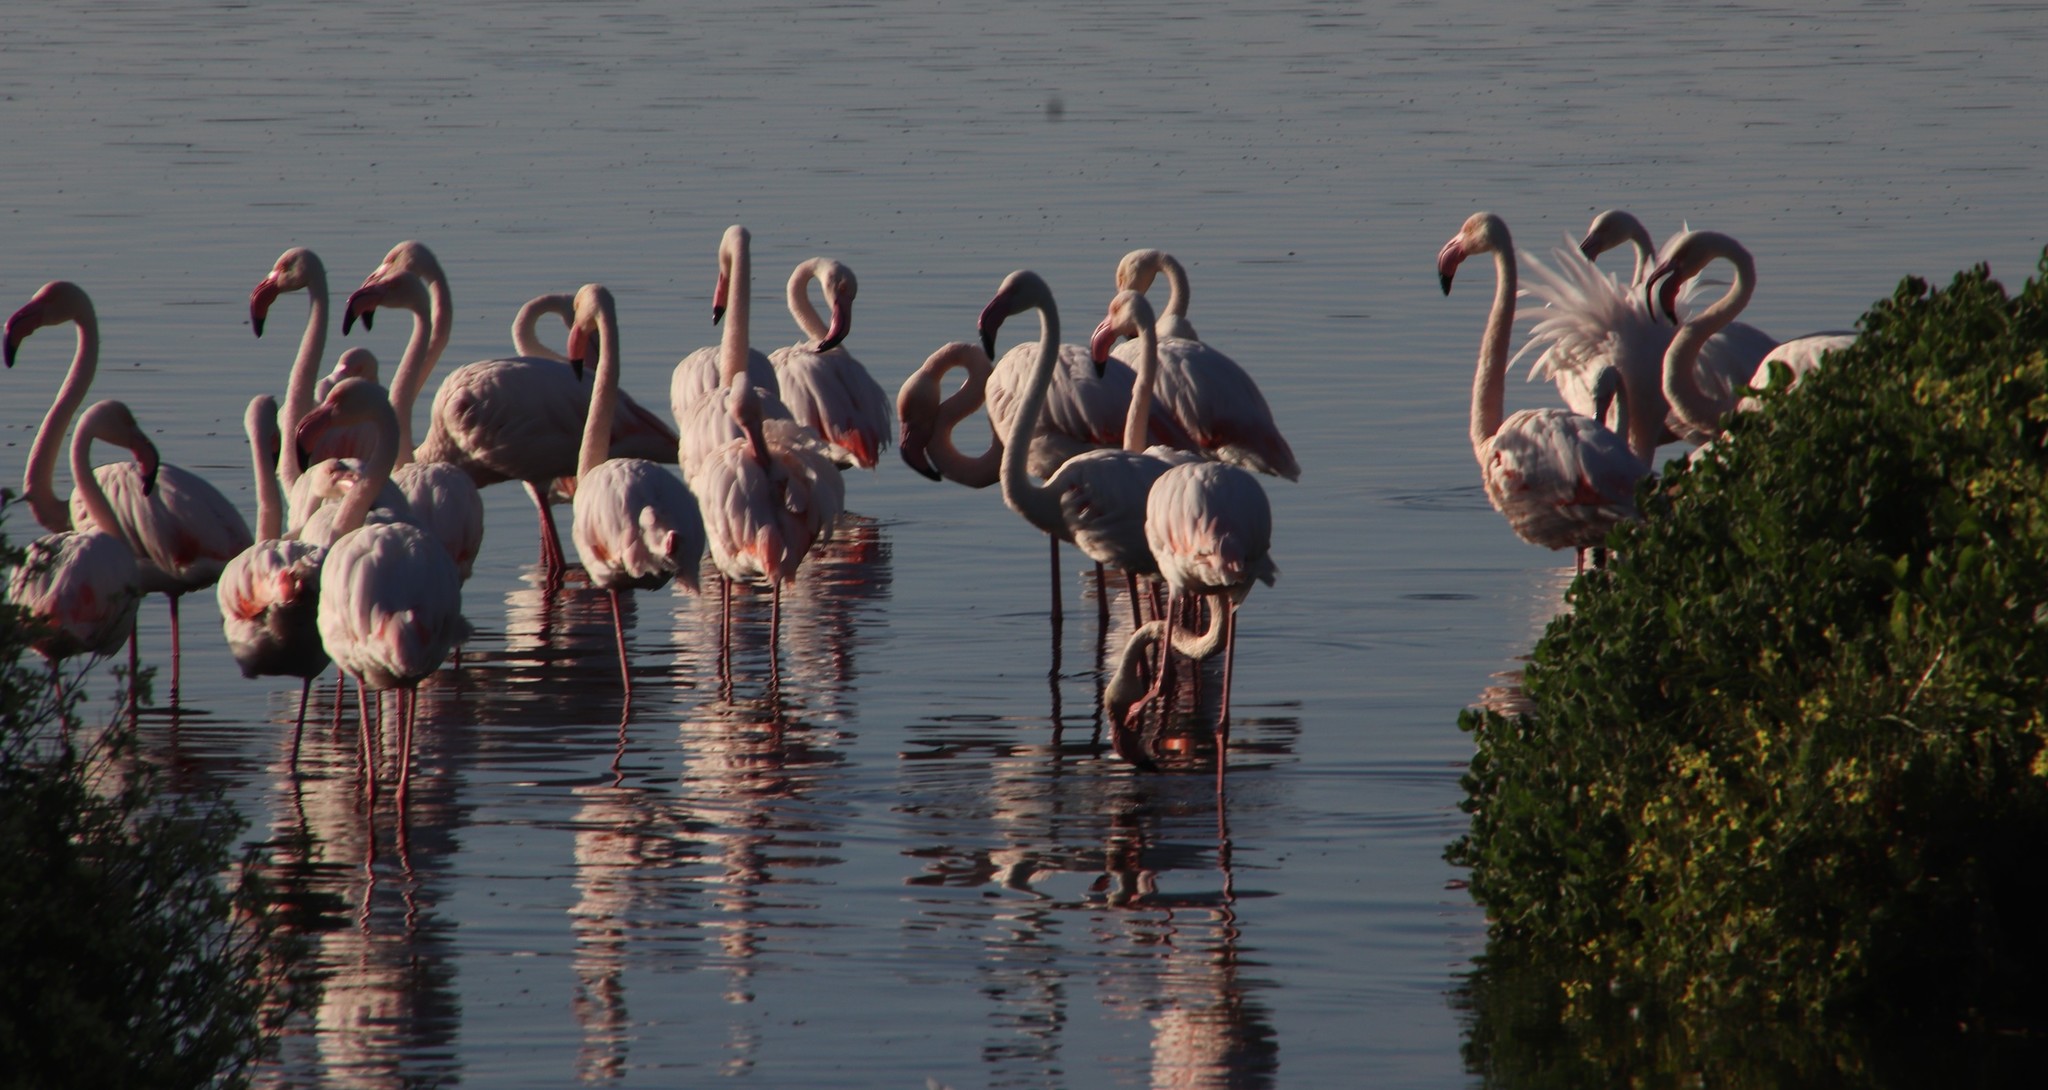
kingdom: Animalia
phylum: Chordata
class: Aves
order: Phoenicopteriformes
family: Phoenicopteridae
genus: Phoenicopterus
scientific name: Phoenicopterus roseus
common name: Greater flamingo
